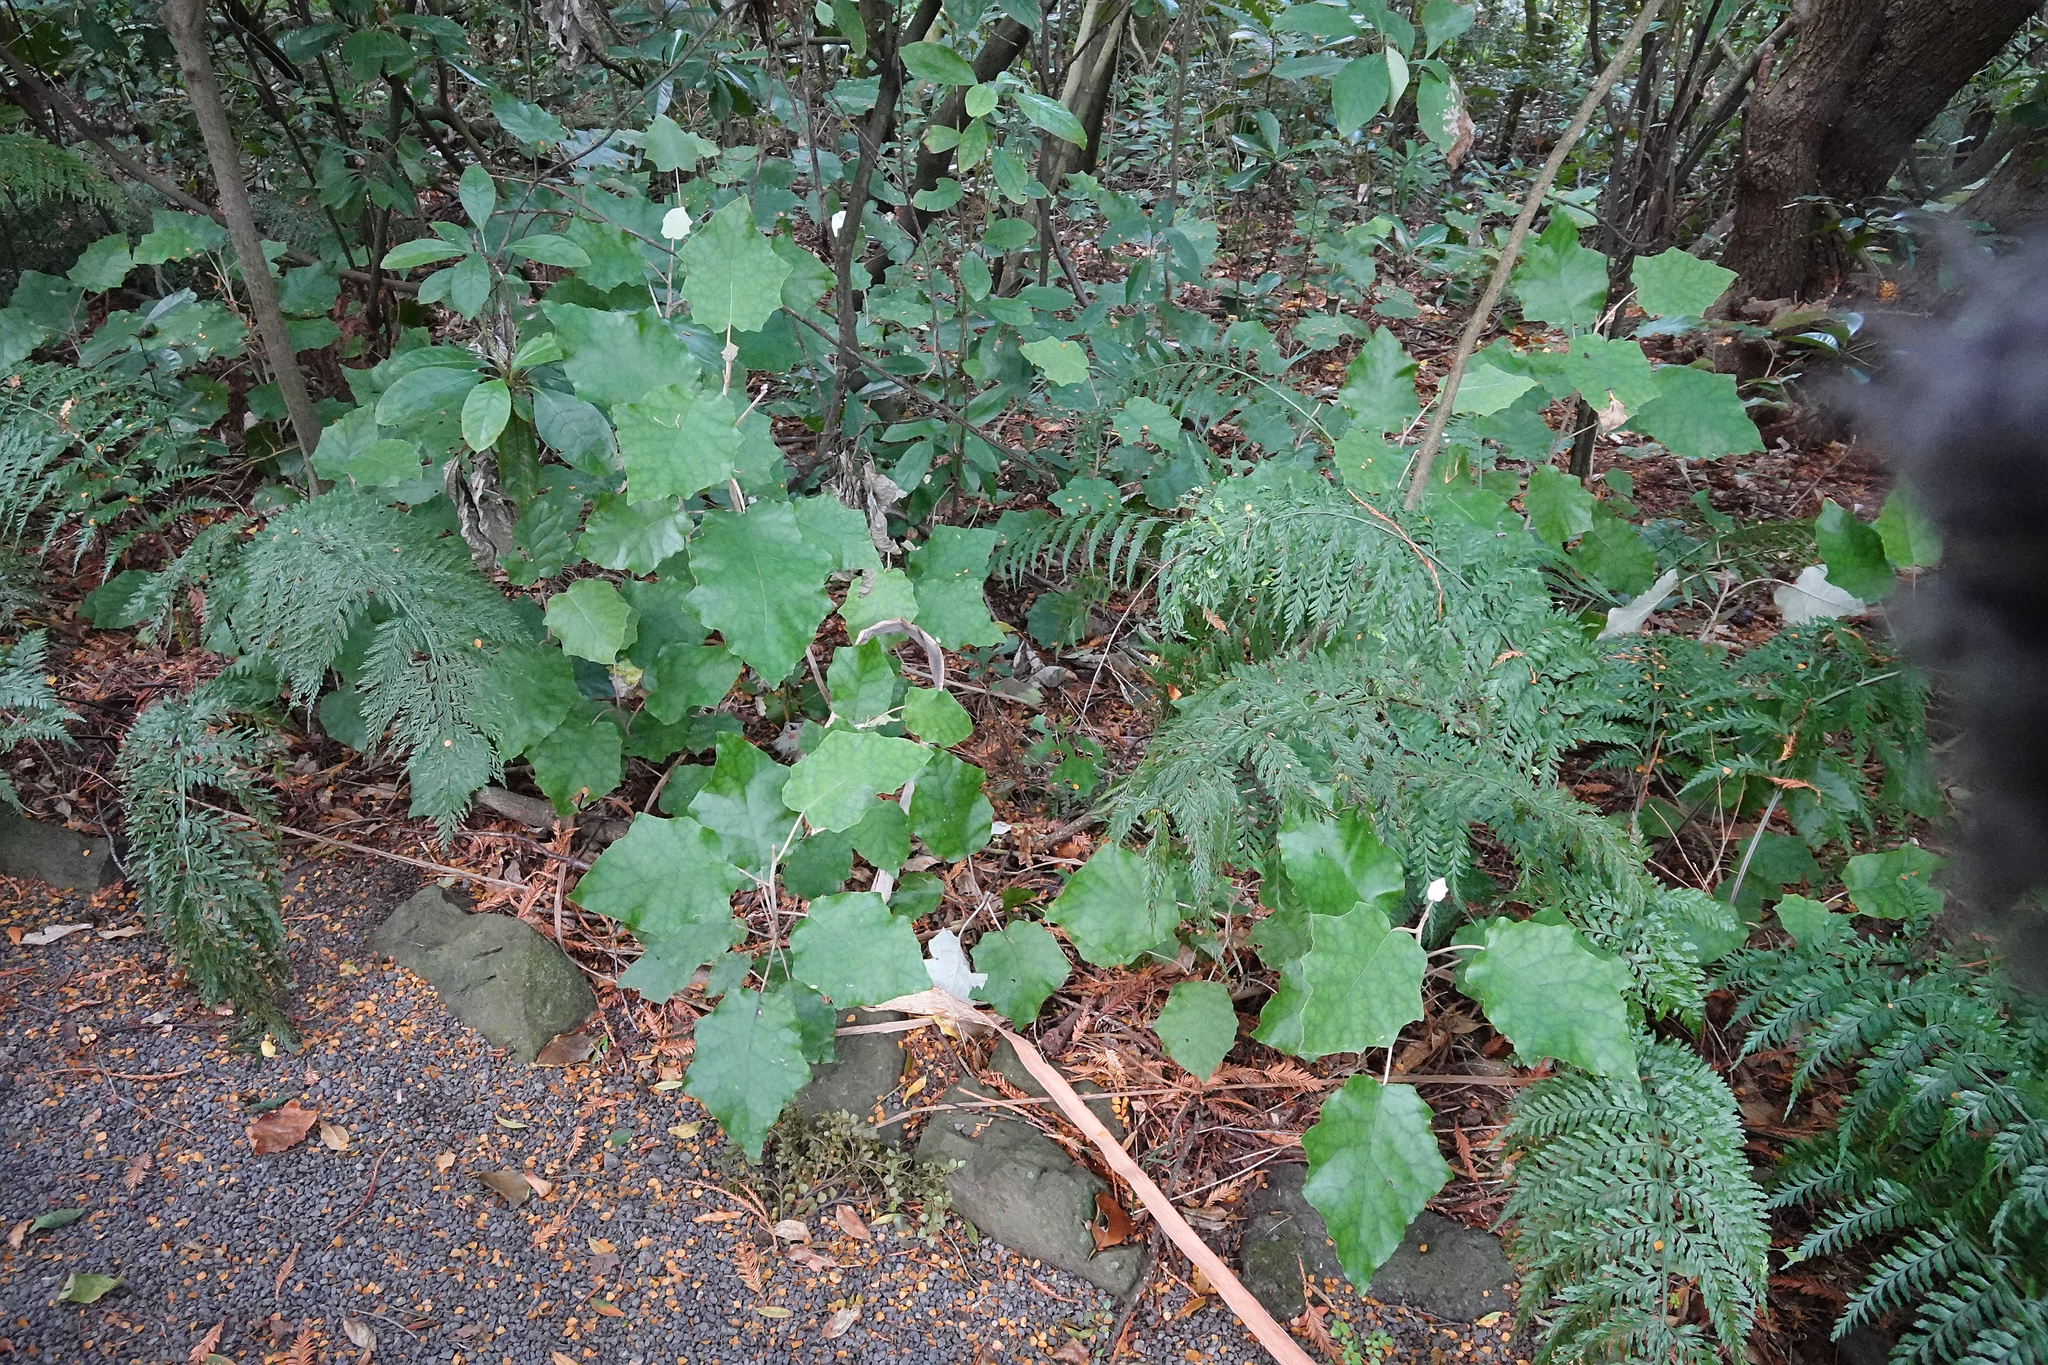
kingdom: Plantae
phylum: Tracheophyta
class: Magnoliopsida
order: Asterales
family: Asteraceae
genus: Brachyglottis
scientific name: Brachyglottis repanda
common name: Hedge ragwort
